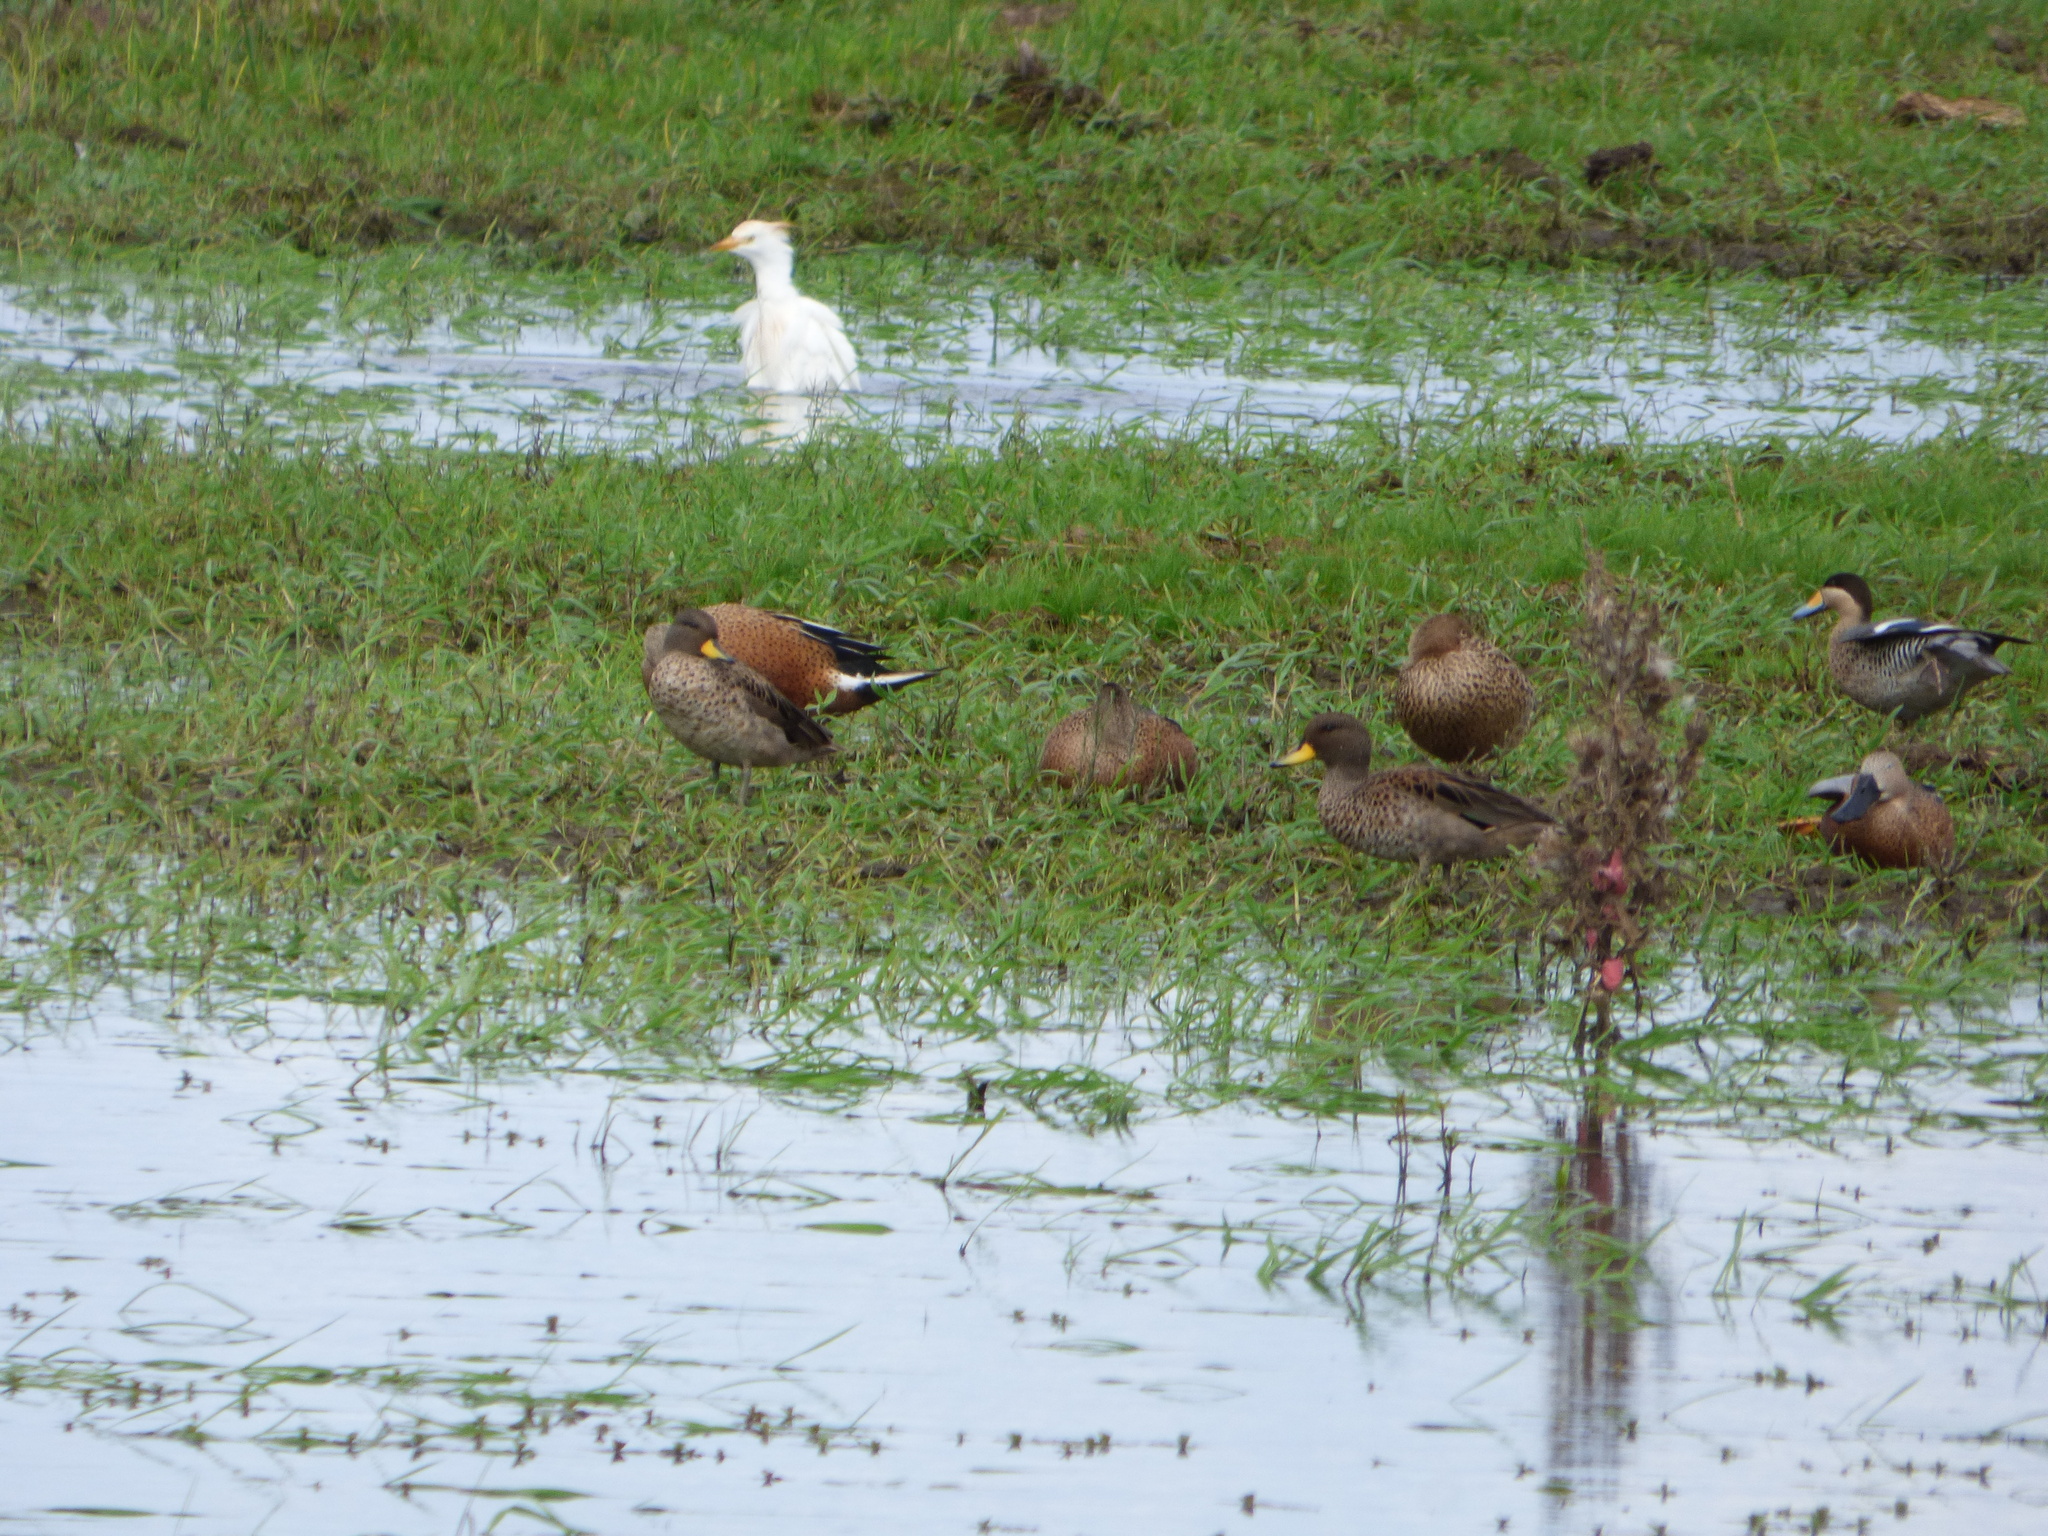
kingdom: Animalia
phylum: Chordata
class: Aves
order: Anseriformes
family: Anatidae
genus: Anas
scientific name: Anas flavirostris
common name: Yellow-billed teal
